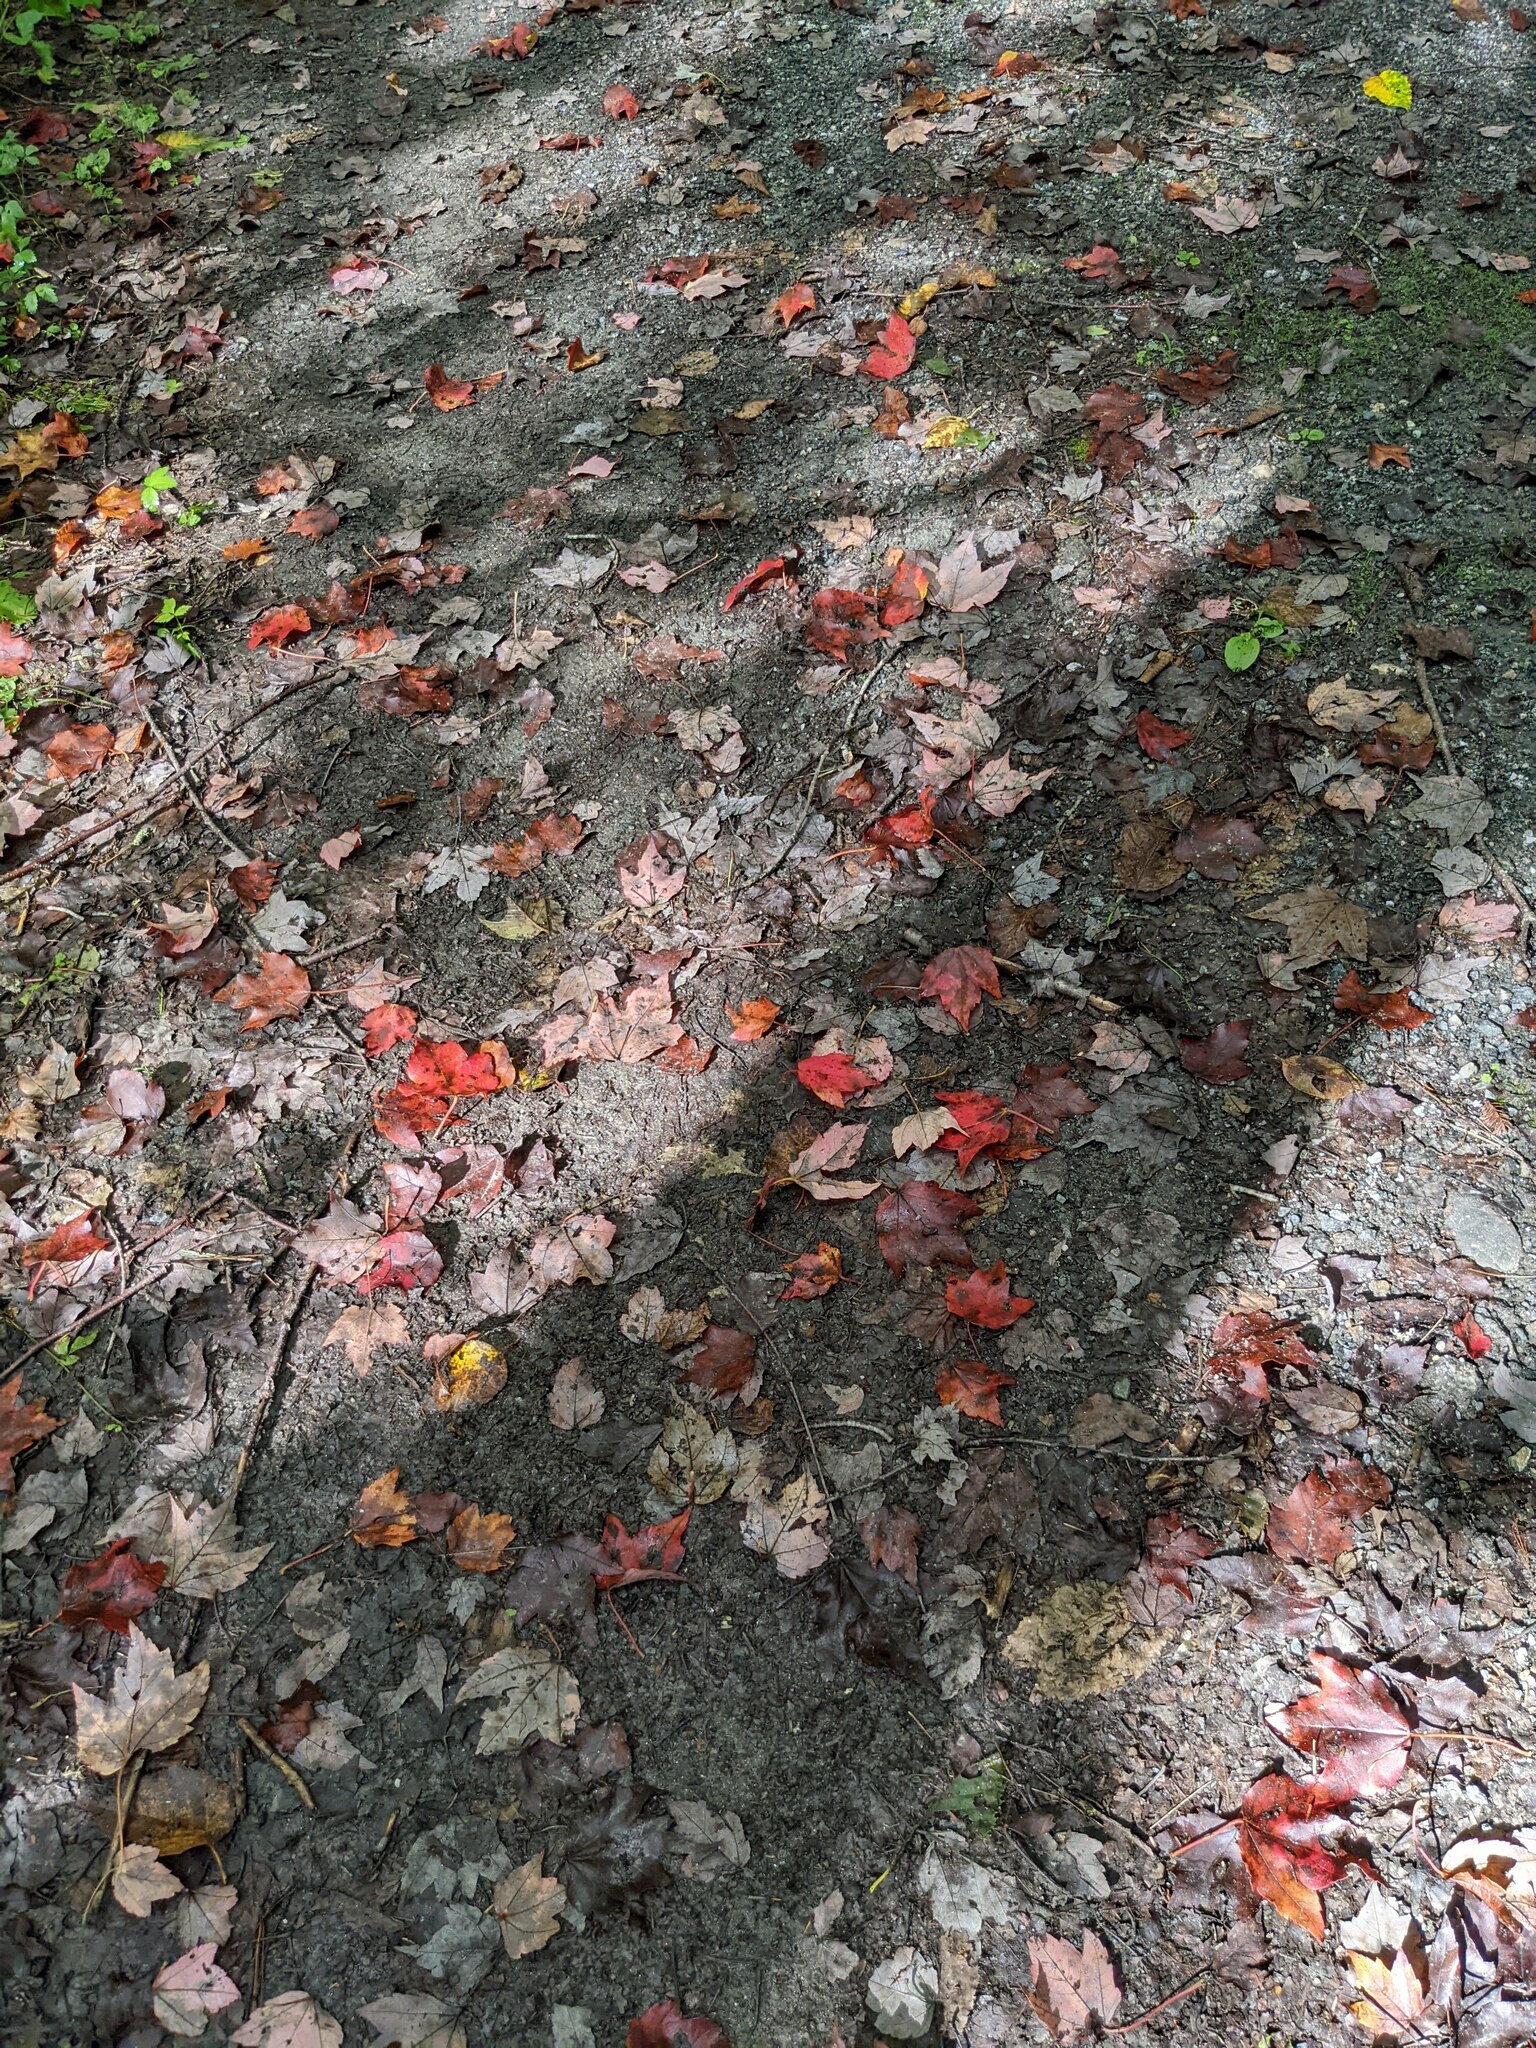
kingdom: Plantae
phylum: Tracheophyta
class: Magnoliopsida
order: Sapindales
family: Sapindaceae
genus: Acer
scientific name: Acer rubrum
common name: Red maple
